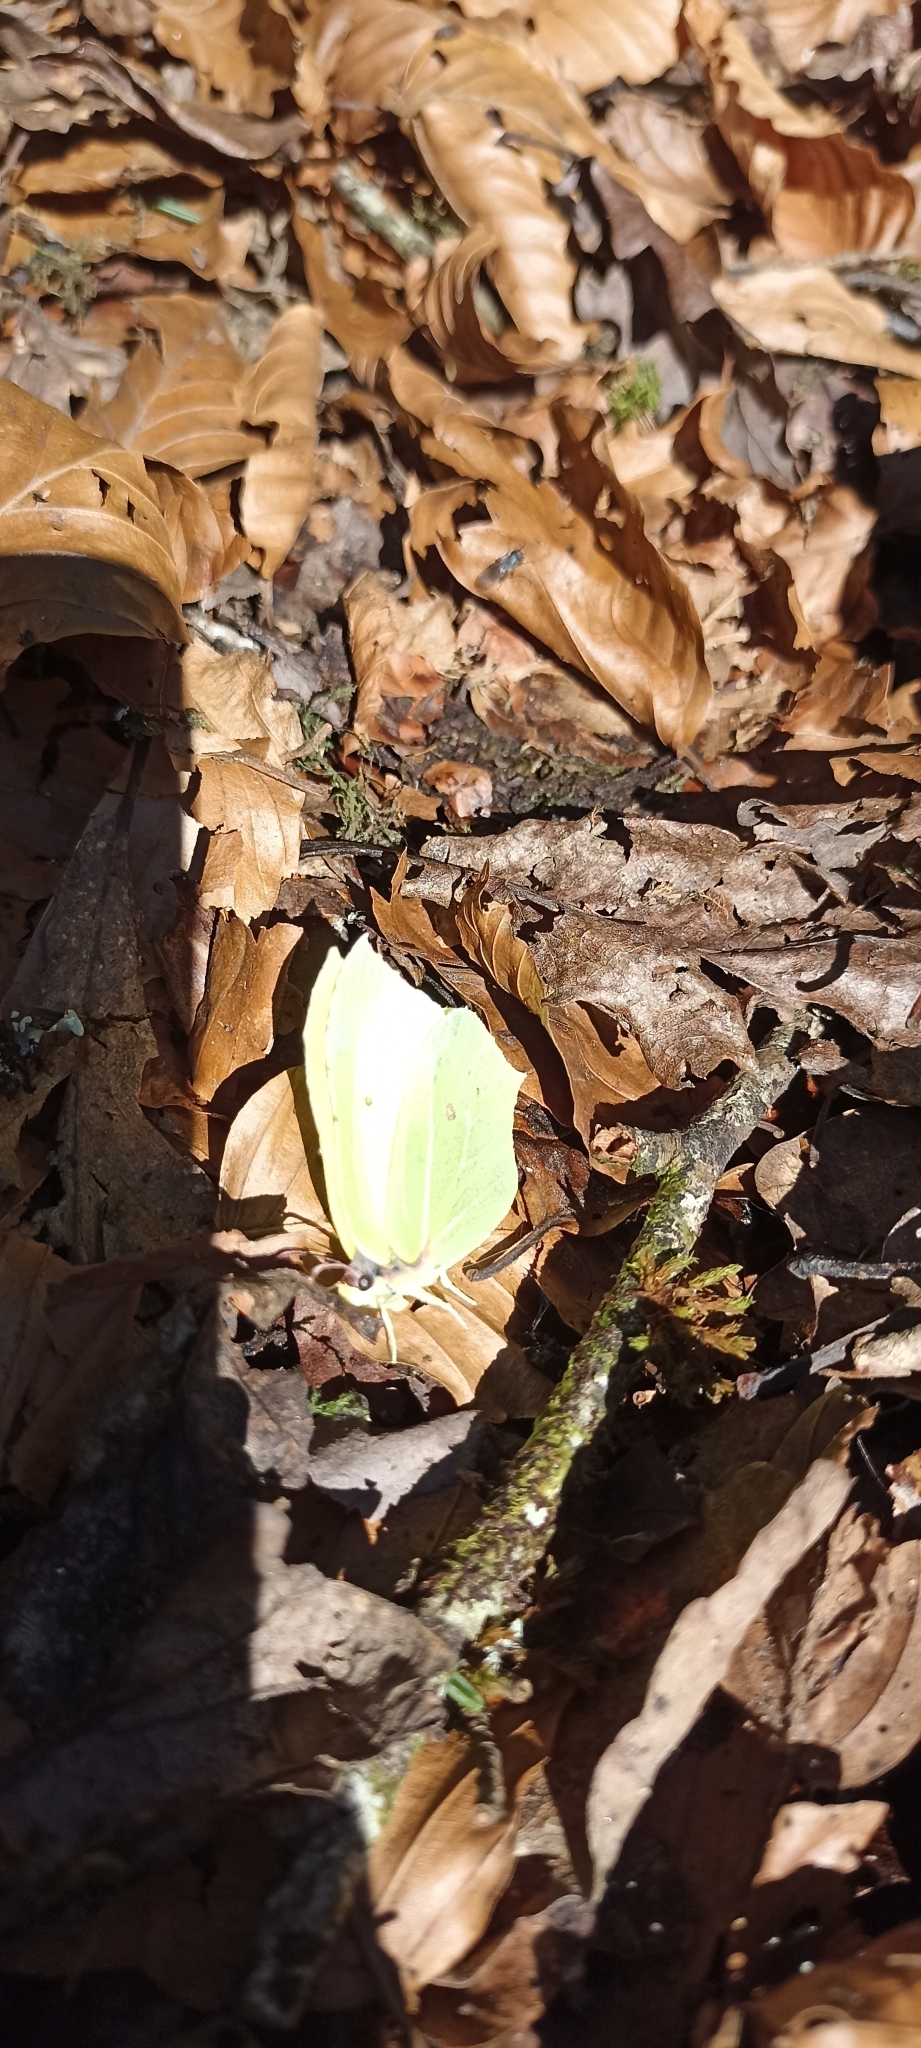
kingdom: Animalia
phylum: Arthropoda
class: Insecta
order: Lepidoptera
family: Pieridae
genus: Gonepteryx
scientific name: Gonepteryx rhamni
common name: Brimstone
